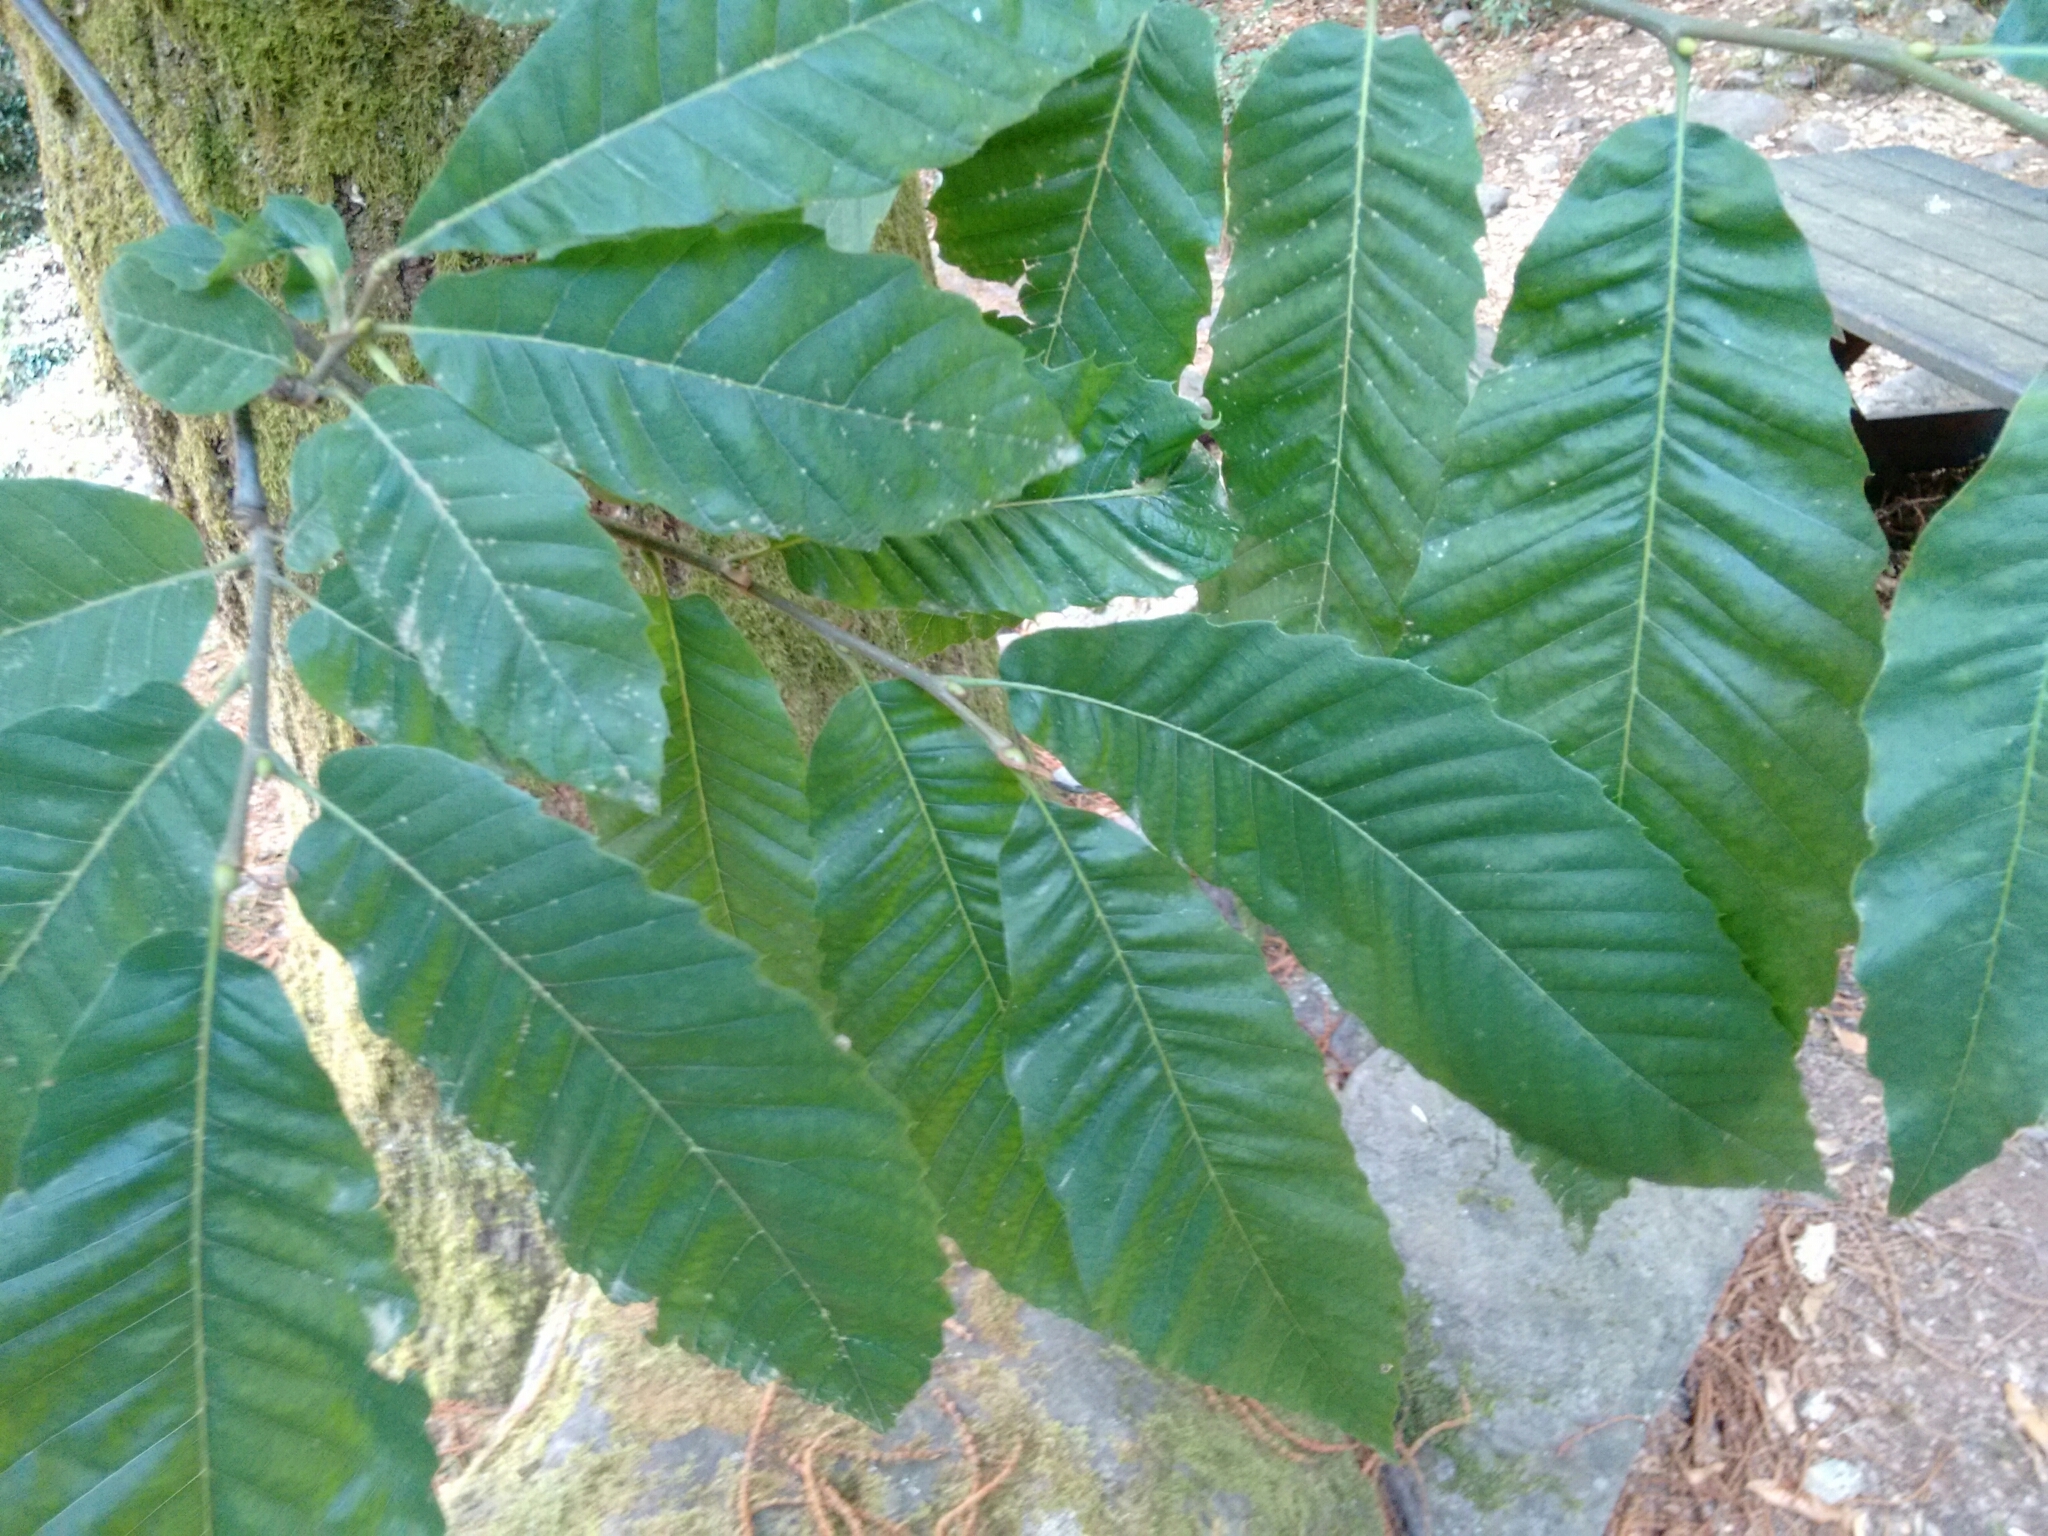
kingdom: Plantae
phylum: Tracheophyta
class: Magnoliopsida
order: Fagales
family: Fagaceae
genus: Castanea
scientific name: Castanea sativa
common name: Sweet chestnut
